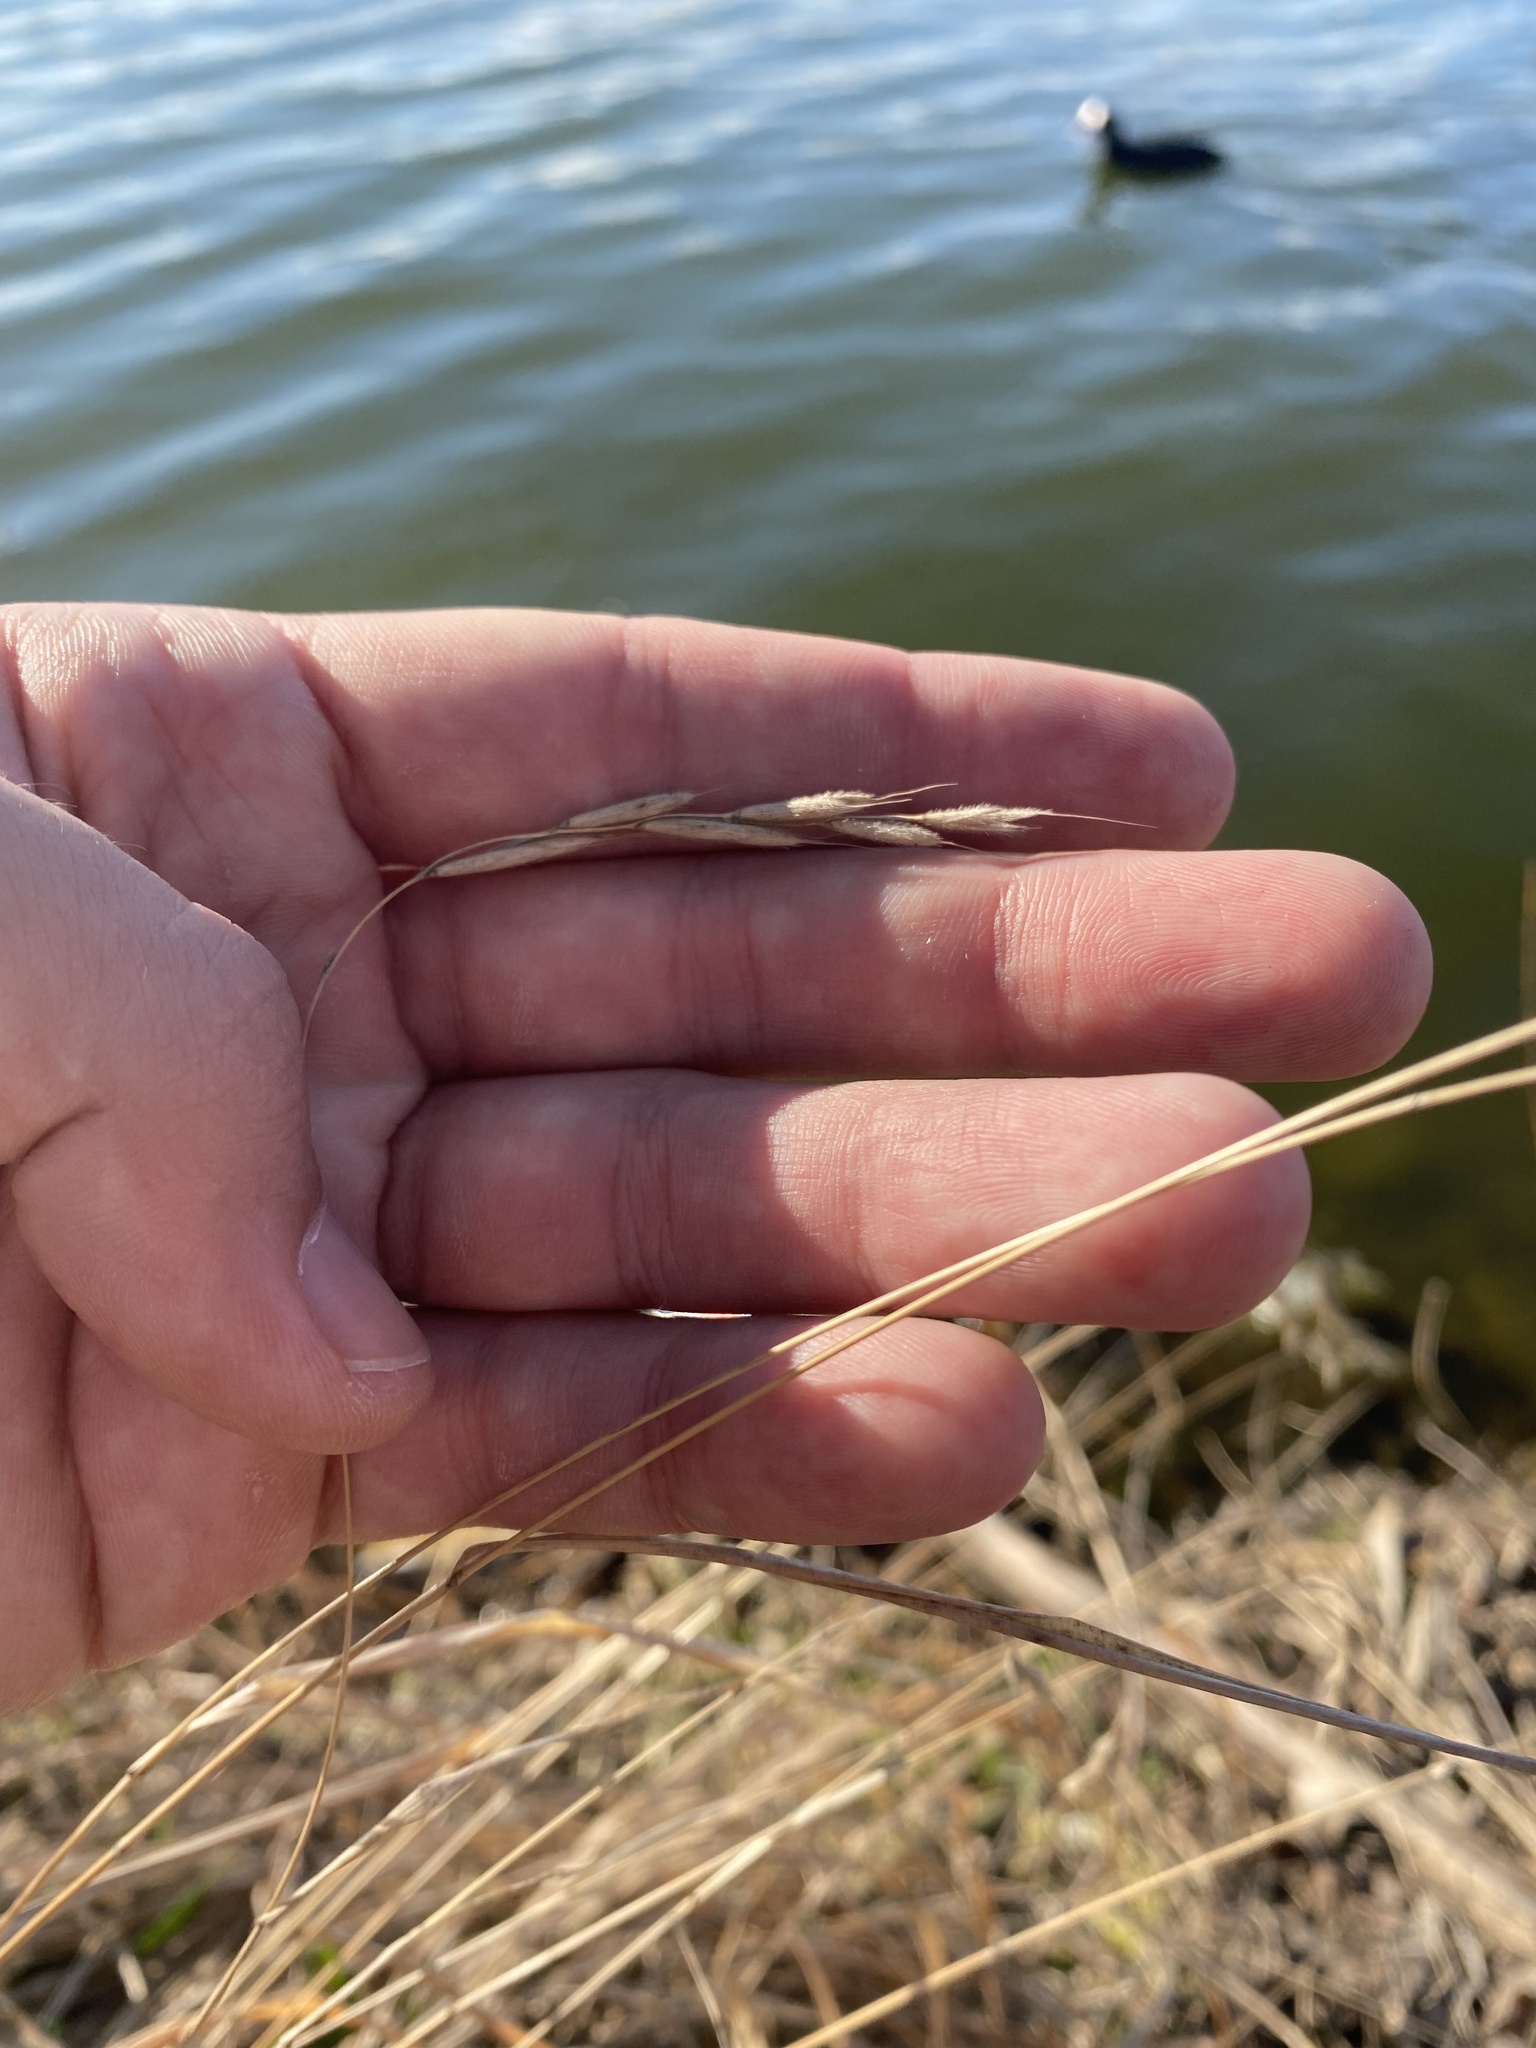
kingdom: Plantae
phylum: Tracheophyta
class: Liliopsida
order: Poales
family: Poaceae
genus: Brachypodium
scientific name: Brachypodium sylvaticum
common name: False-brome
